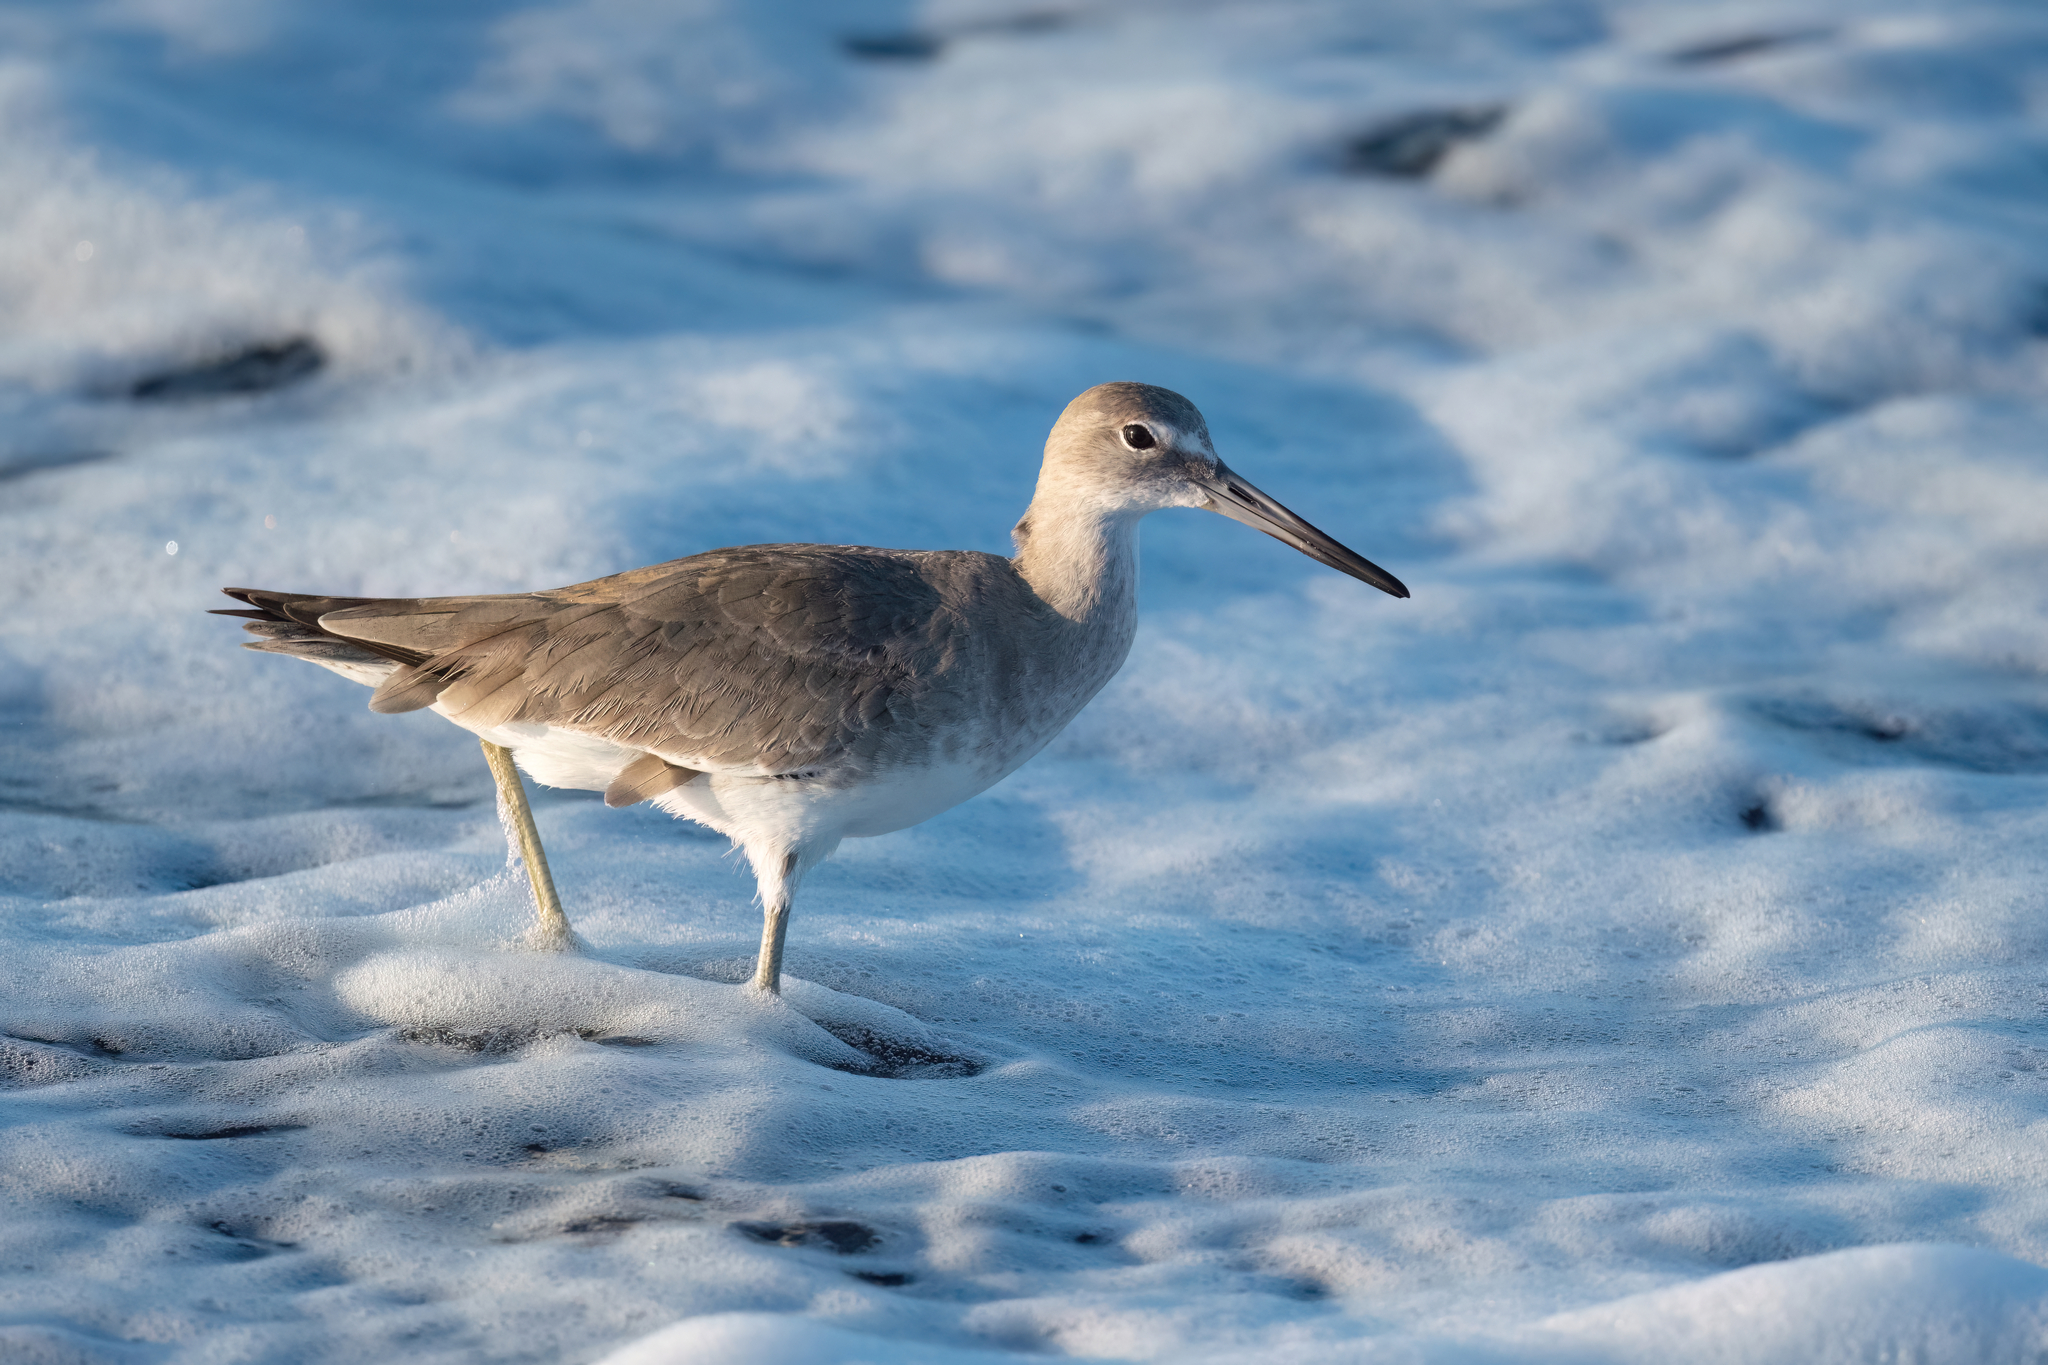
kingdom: Animalia
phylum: Chordata
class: Aves
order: Charadriiformes
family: Scolopacidae
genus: Tringa
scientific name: Tringa semipalmata
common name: Willet
